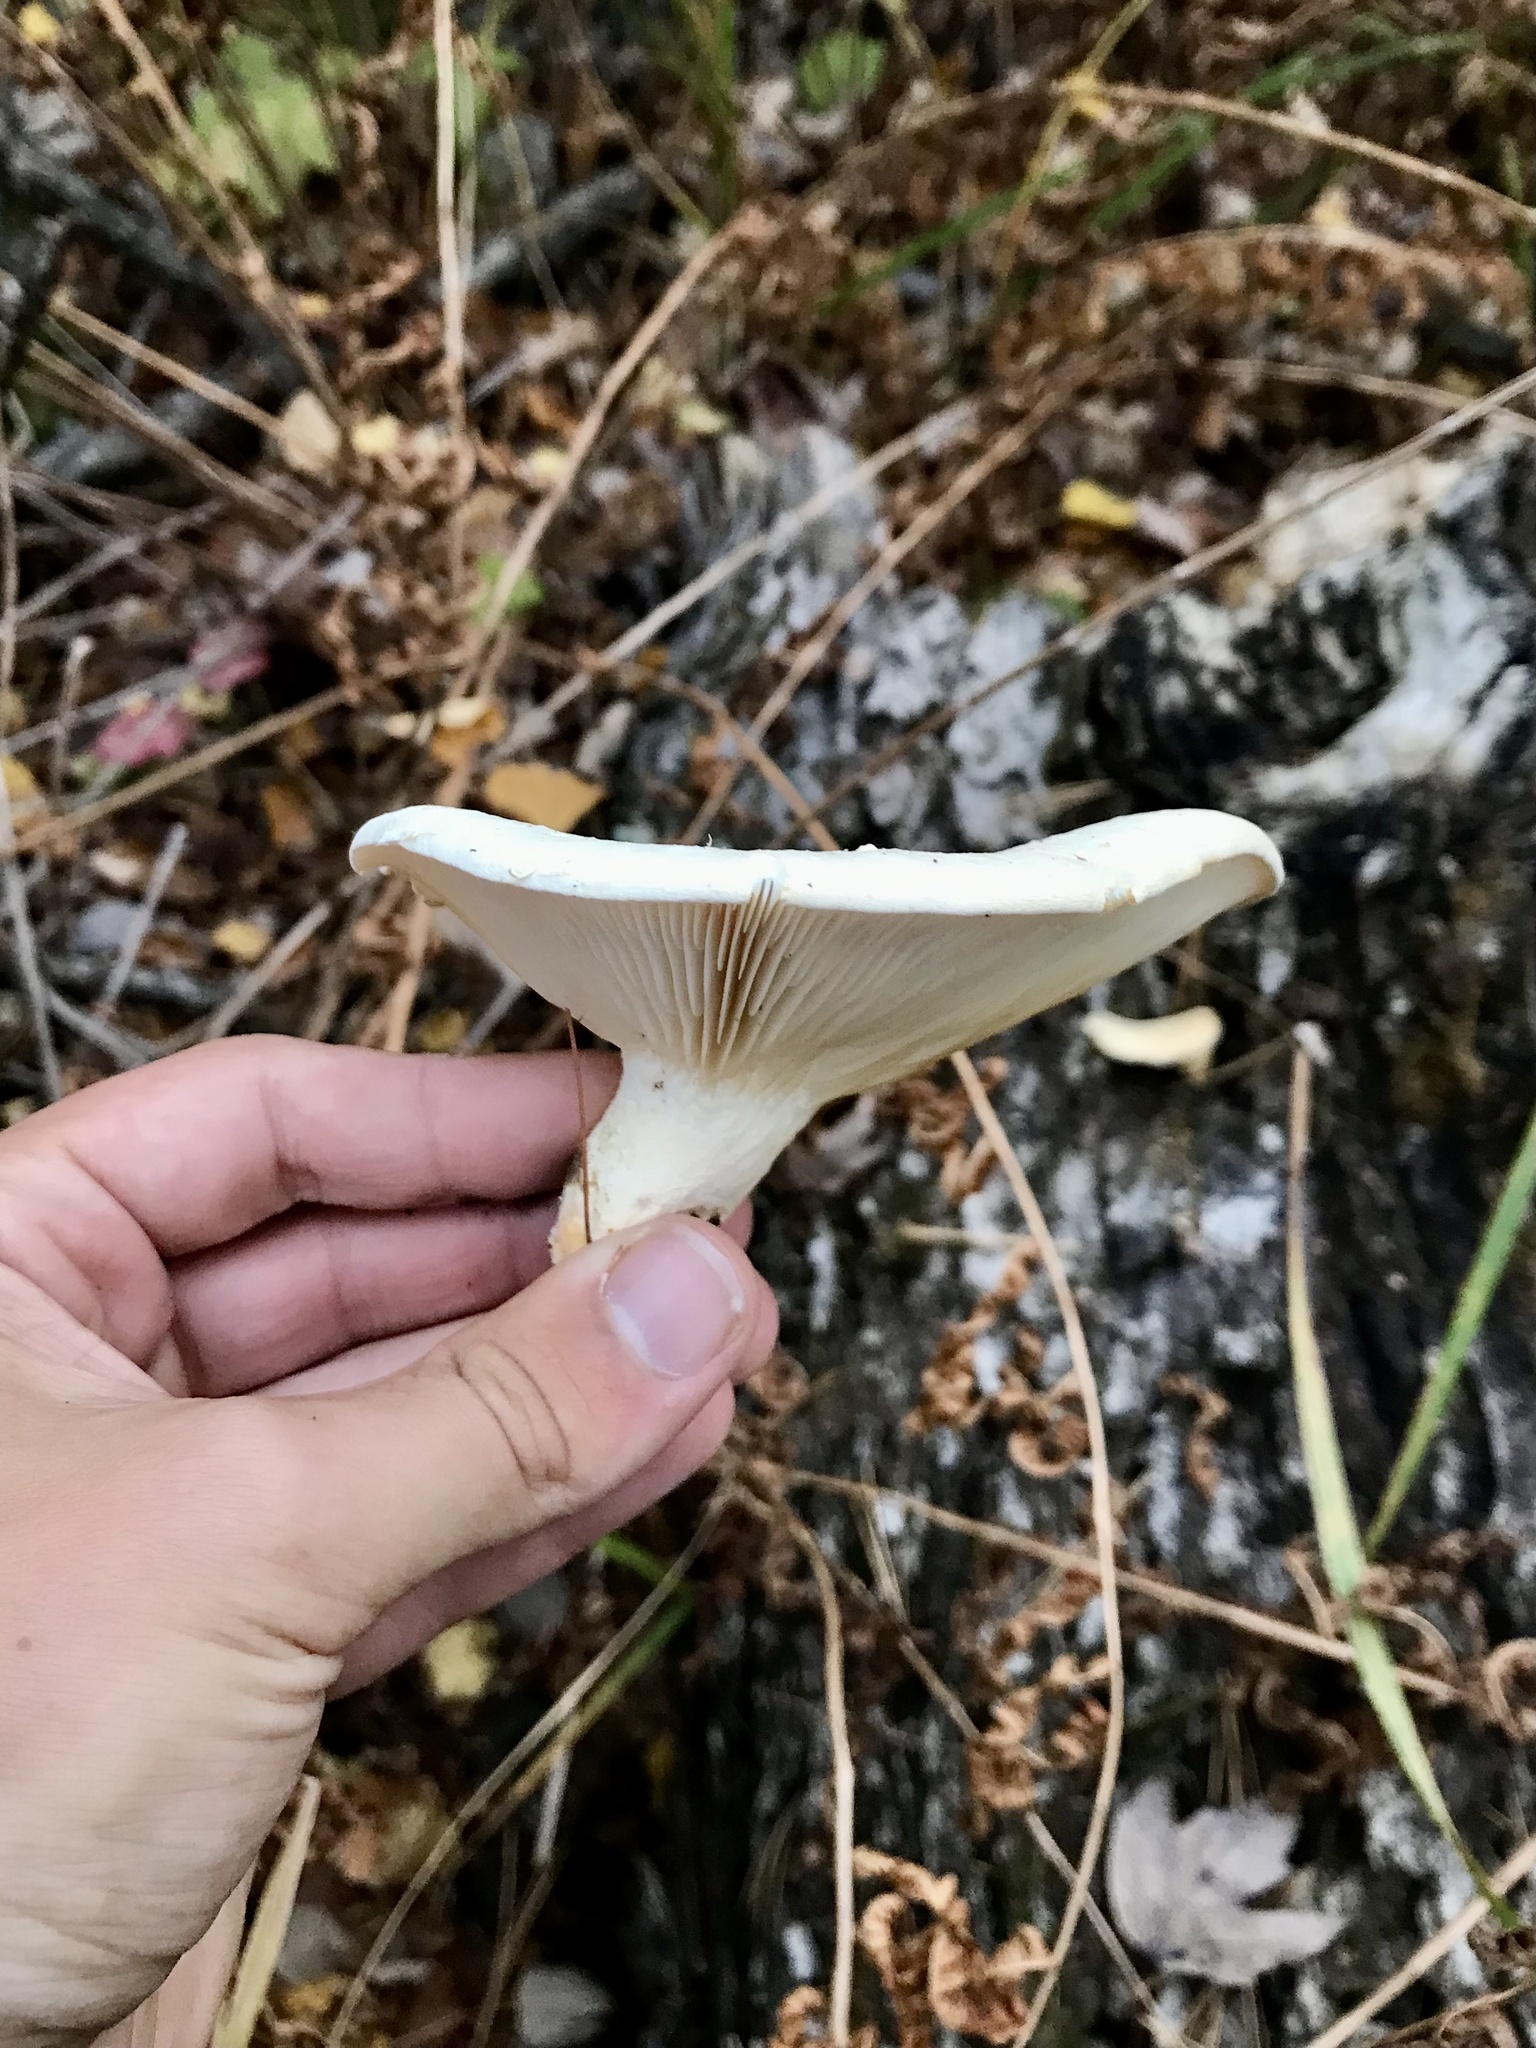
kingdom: Fungi
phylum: Basidiomycota
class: Agaricomycetes
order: Agaricales
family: Pleurotaceae
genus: Pleurotus
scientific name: Pleurotus dryinus
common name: Veiled oyster
